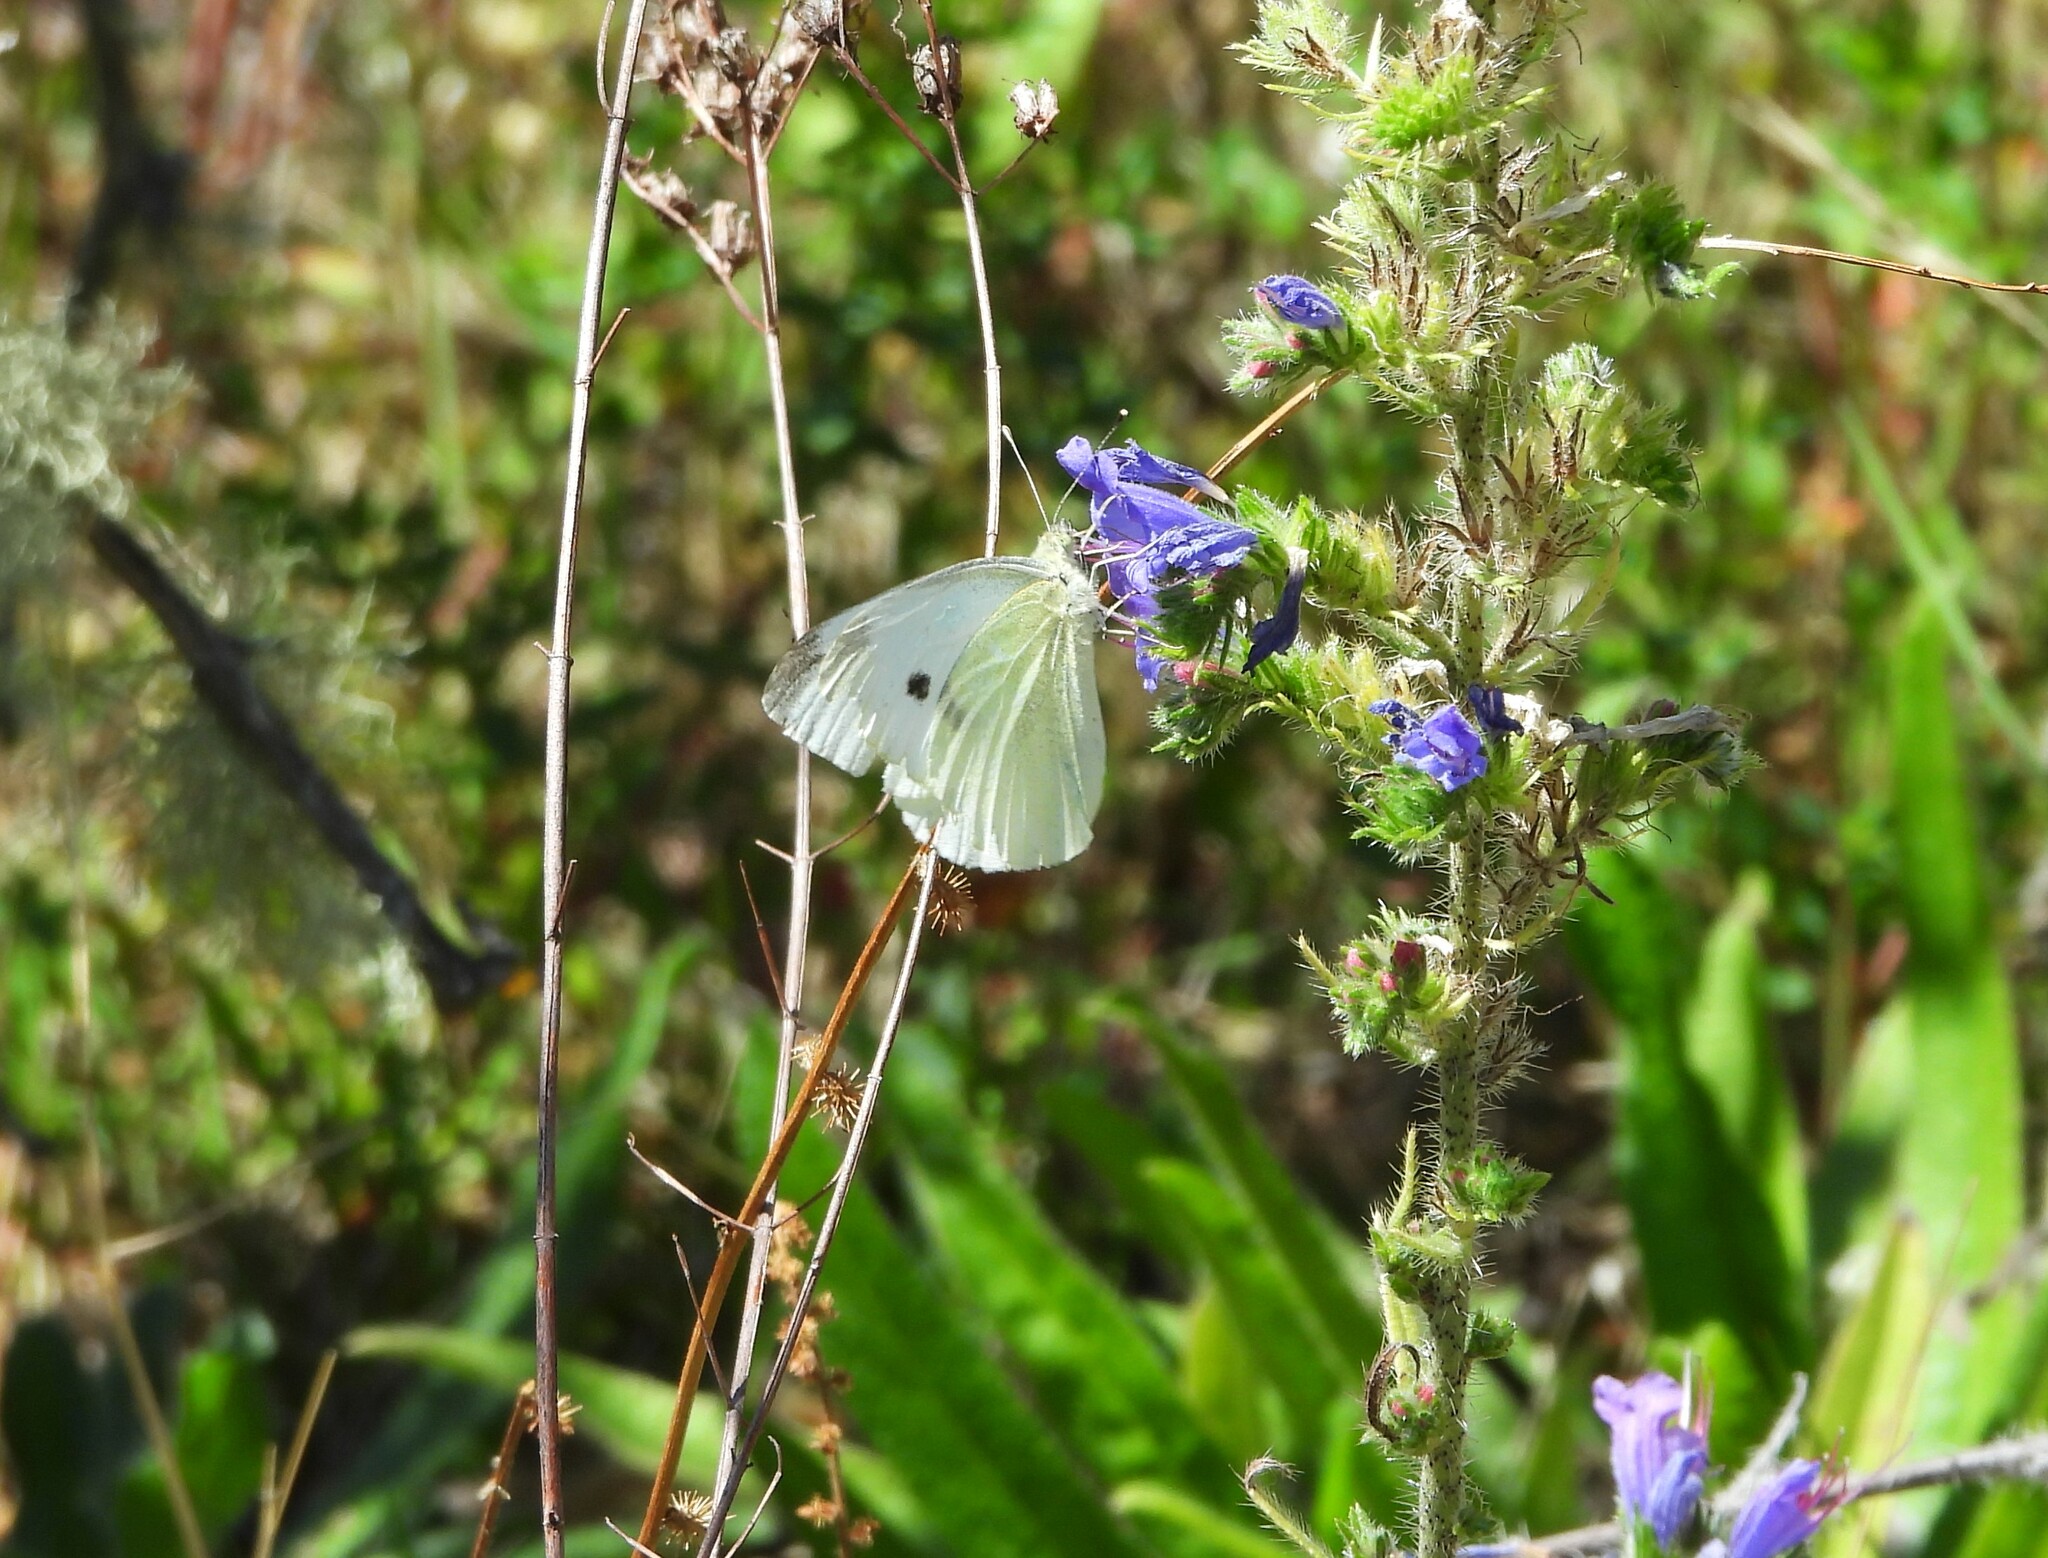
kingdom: Animalia
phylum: Arthropoda
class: Insecta
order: Lepidoptera
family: Pieridae
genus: Pieris
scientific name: Pieris rapae
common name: Small white
